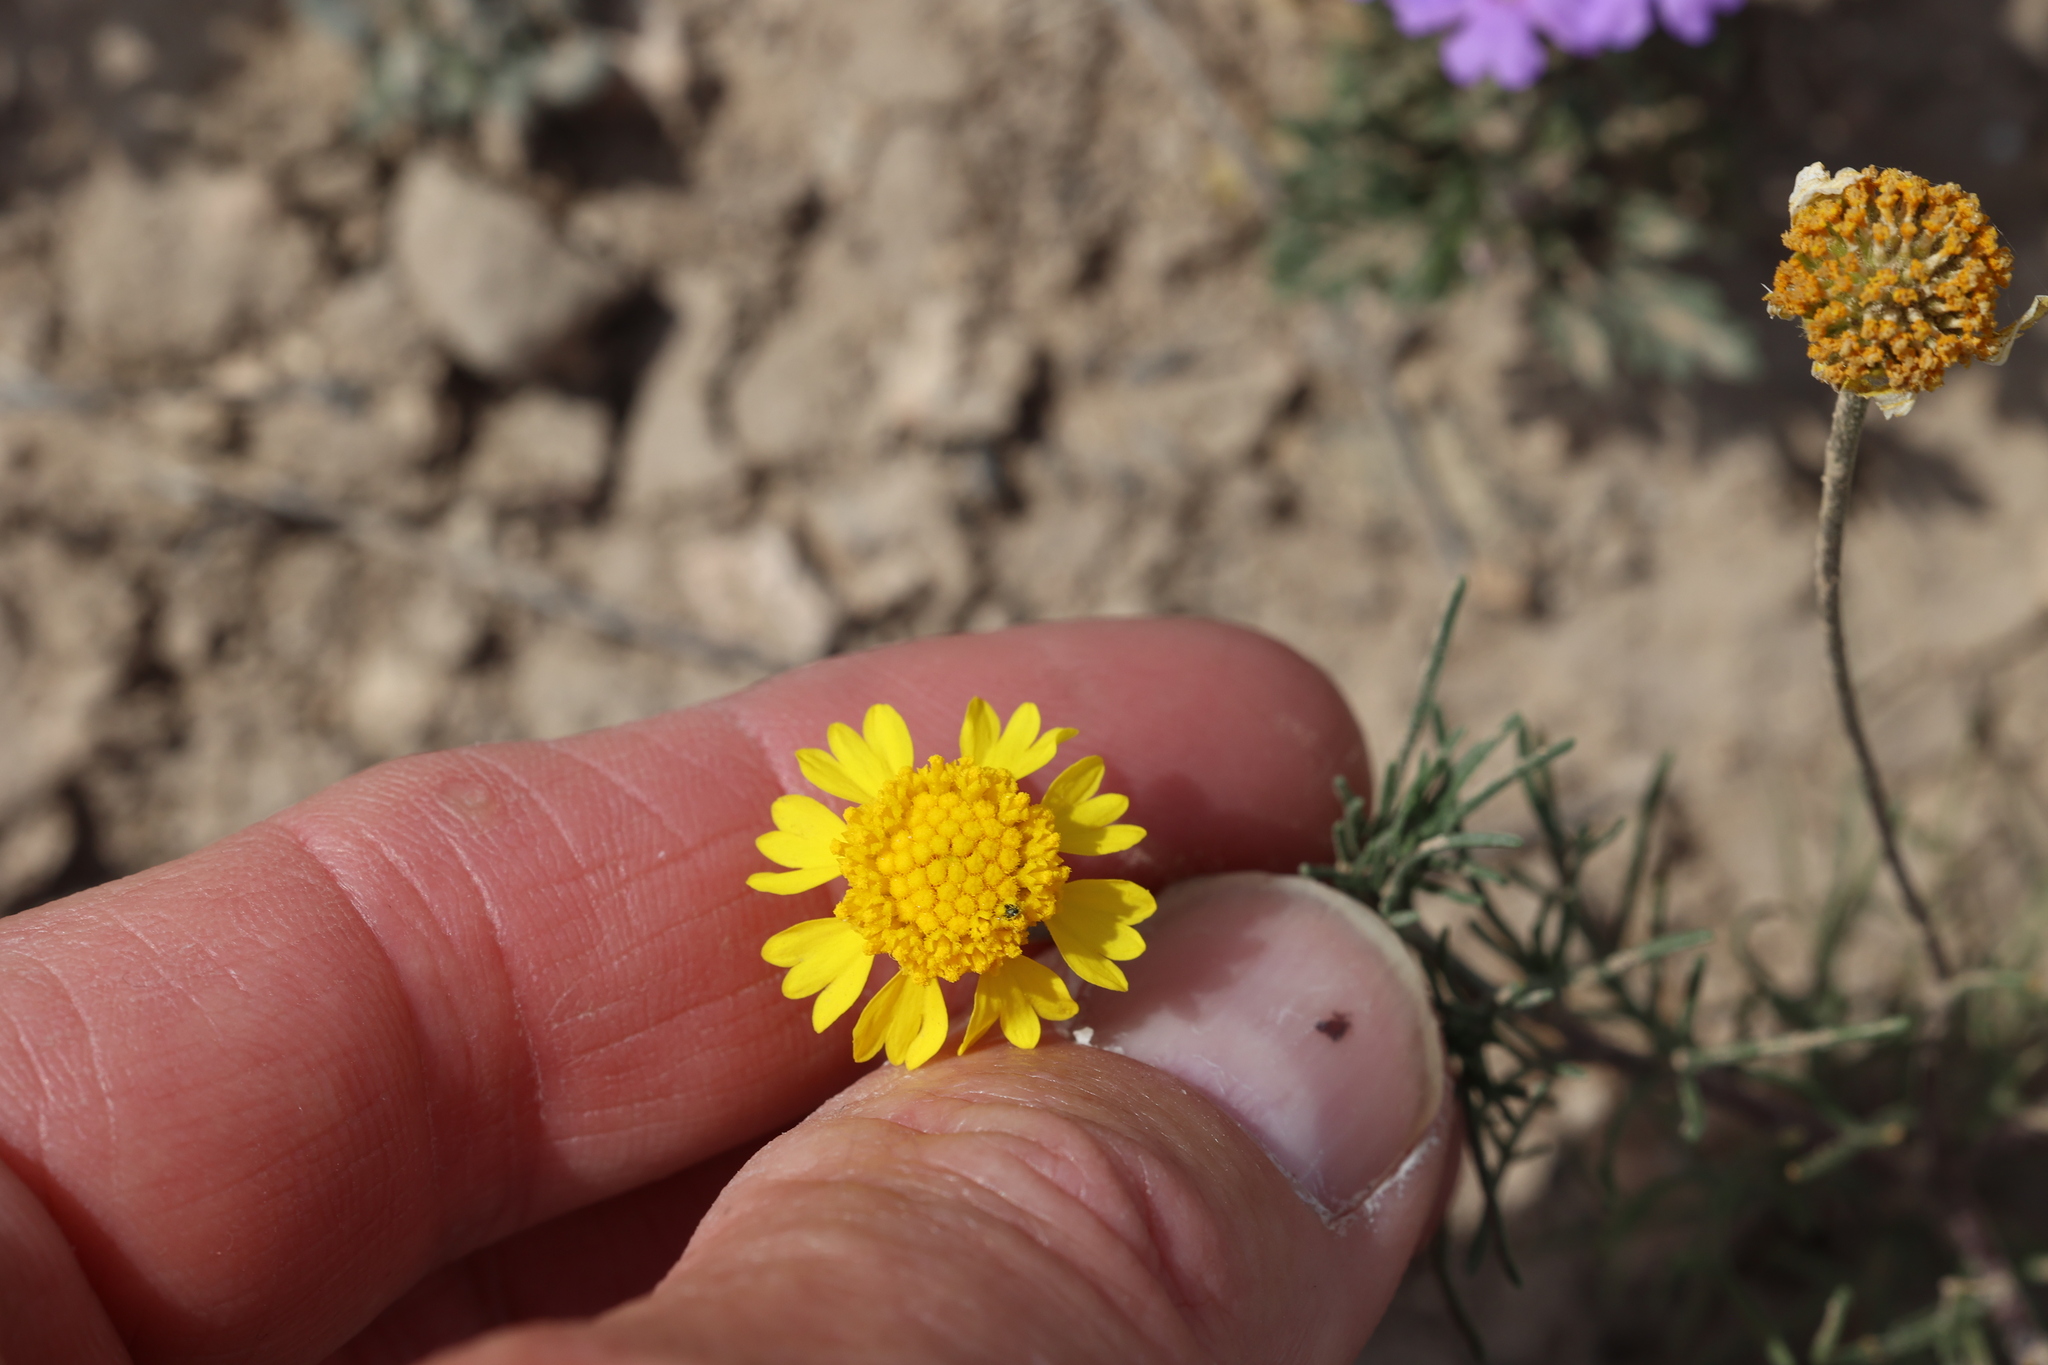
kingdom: Plantae
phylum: Tracheophyta
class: Magnoliopsida
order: Asterales
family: Asteraceae
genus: Hymenoxys
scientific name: Hymenoxys odorata
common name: Bitter rubberweed
